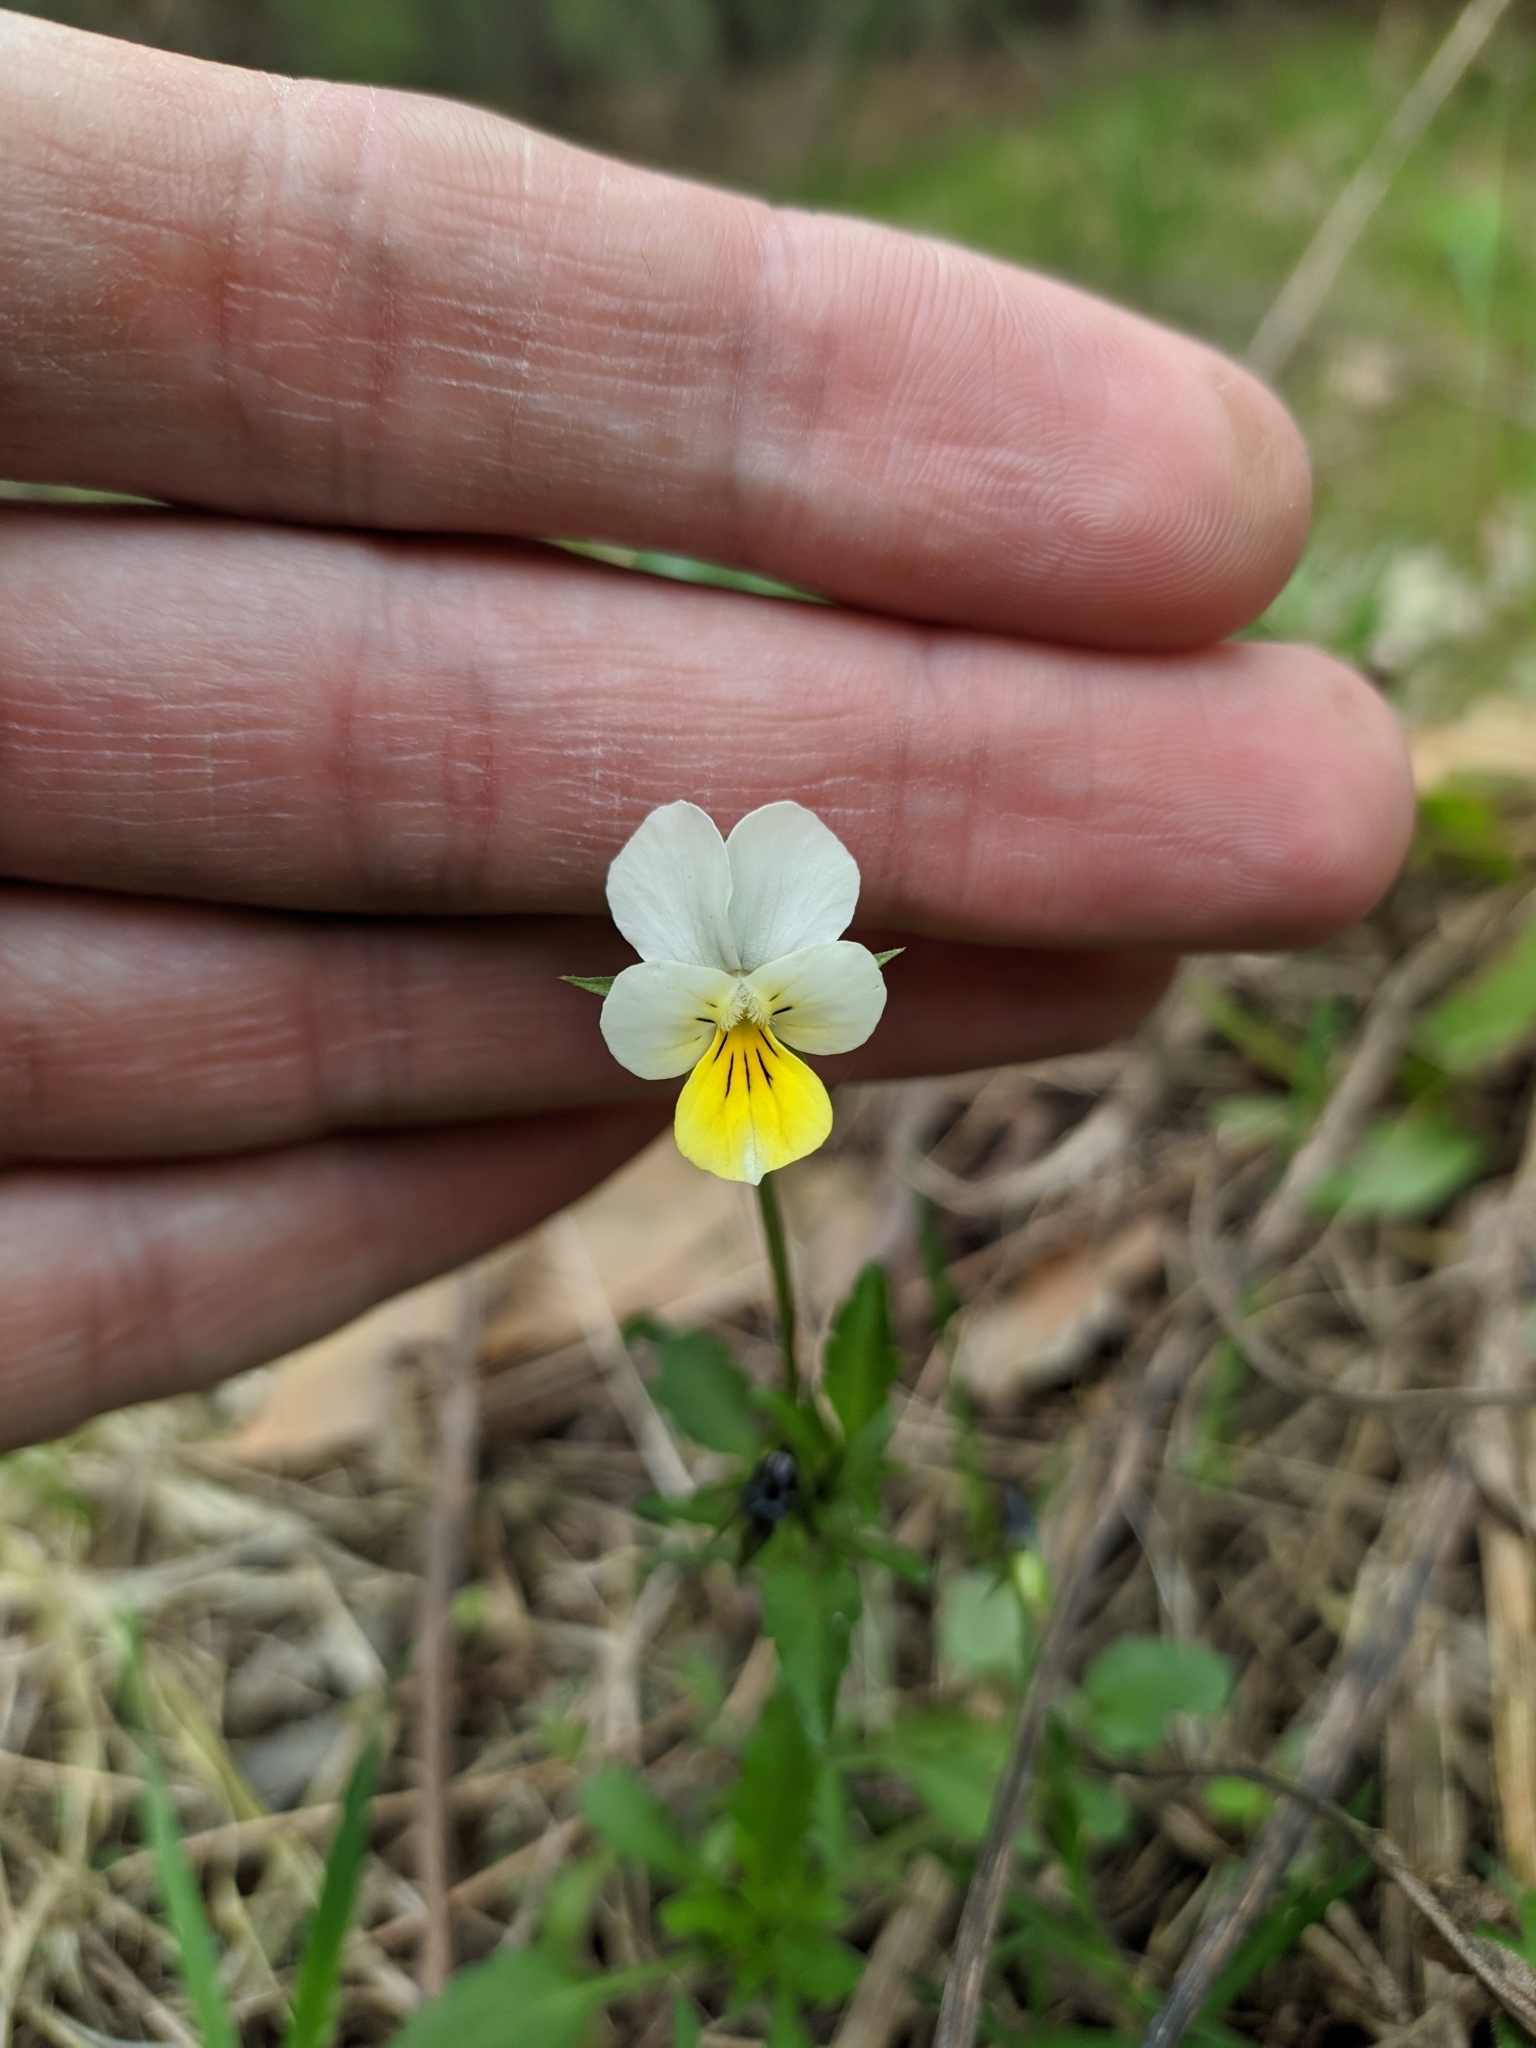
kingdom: Plantae
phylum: Tracheophyta
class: Magnoliopsida
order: Malpighiales
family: Violaceae
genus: Viola
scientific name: Viola arvensis
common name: Field pansy
